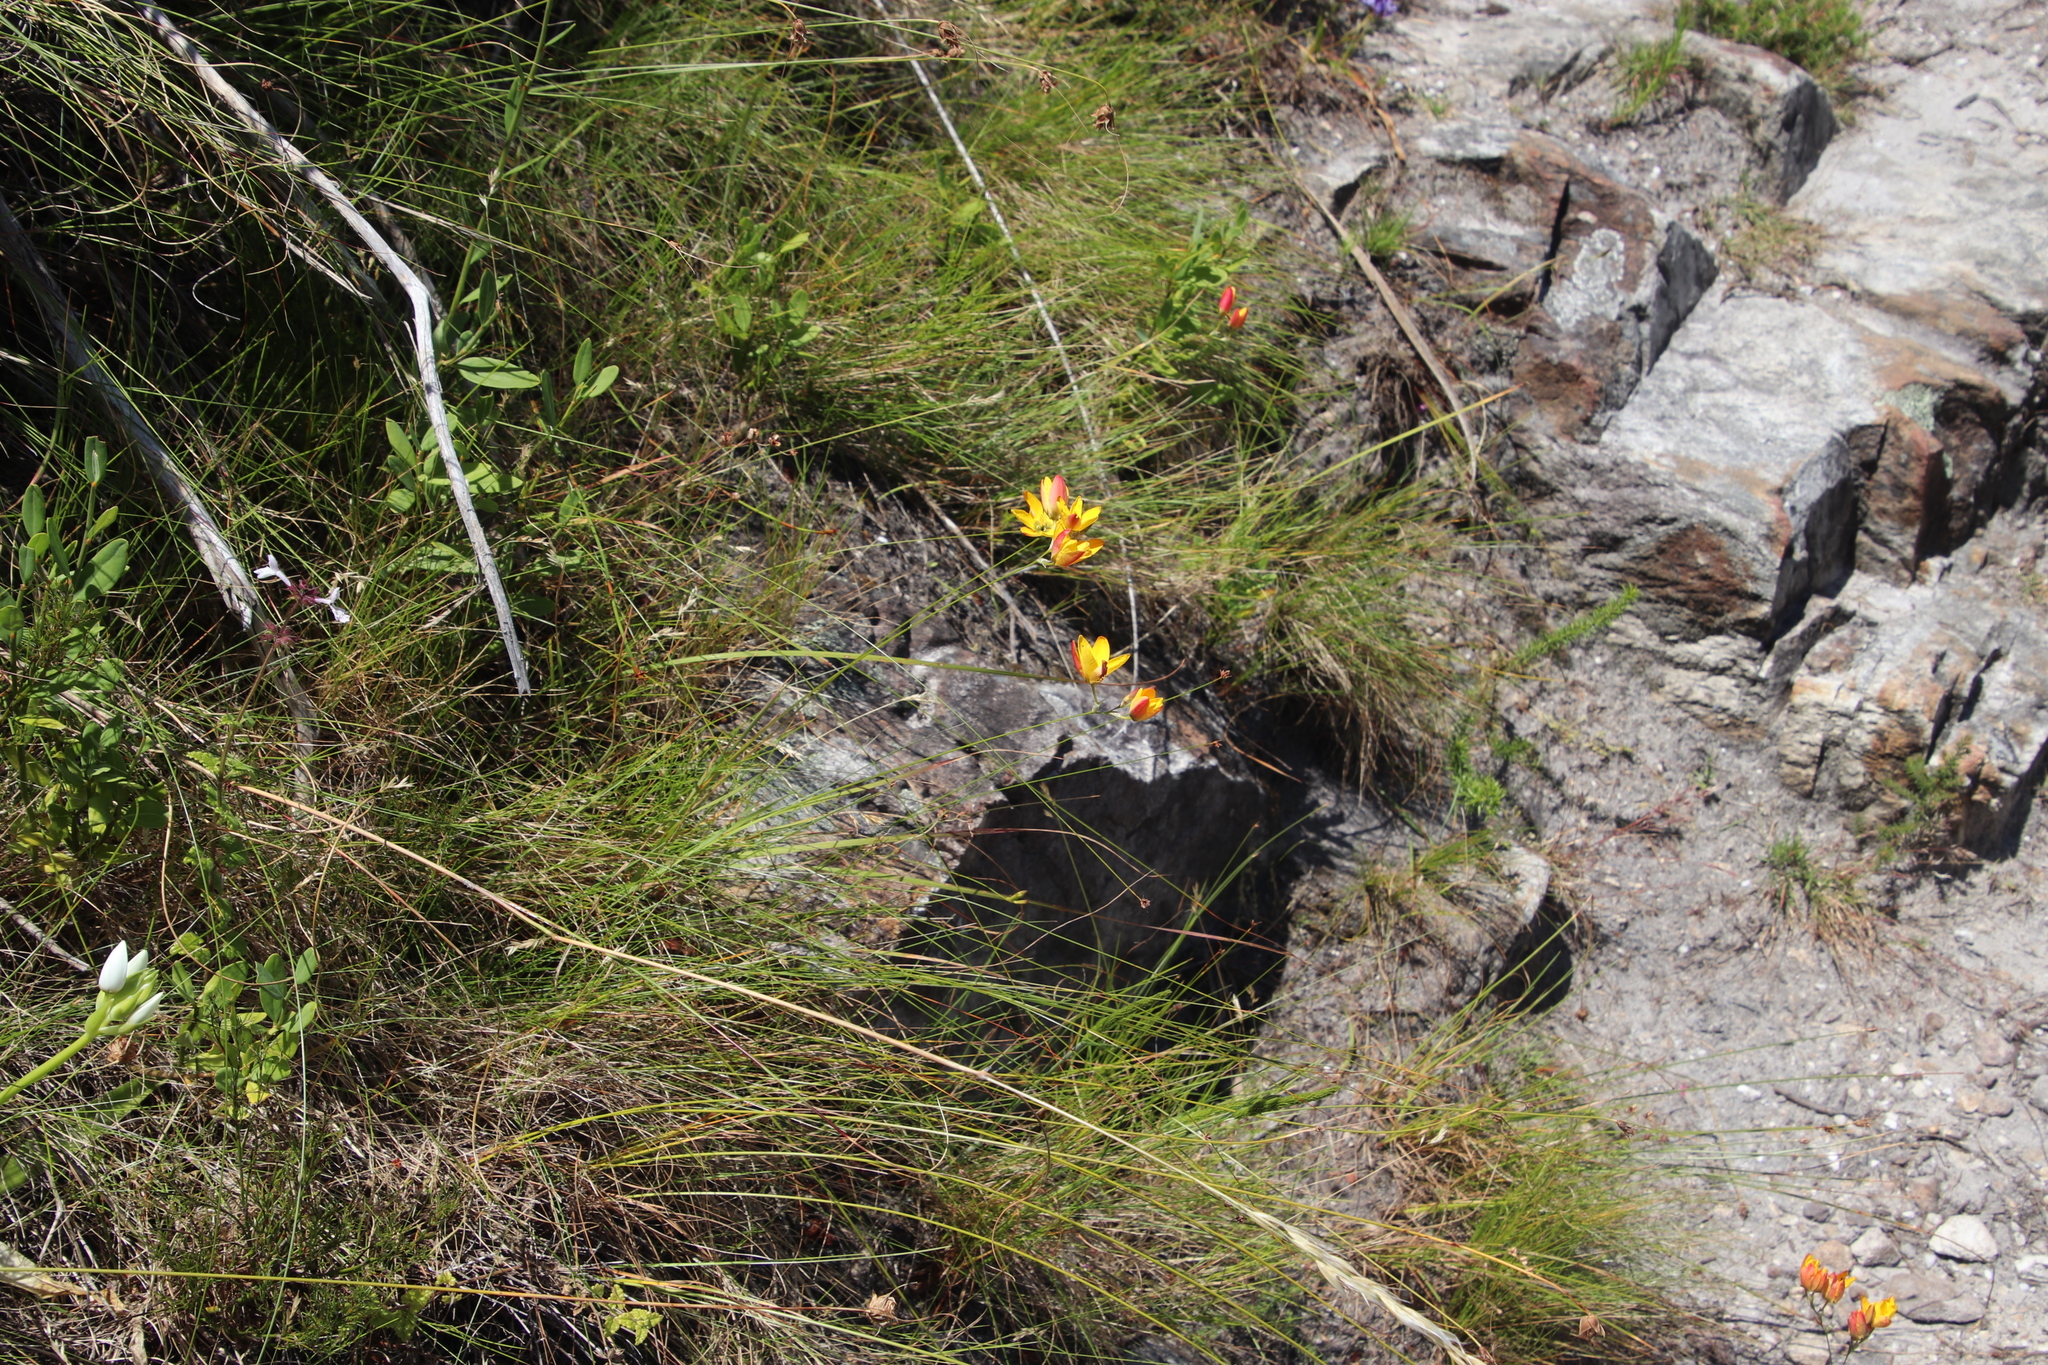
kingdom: Plantae
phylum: Tracheophyta
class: Liliopsida
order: Asparagales
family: Iridaceae
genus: Ixia
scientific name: Ixia dubia
